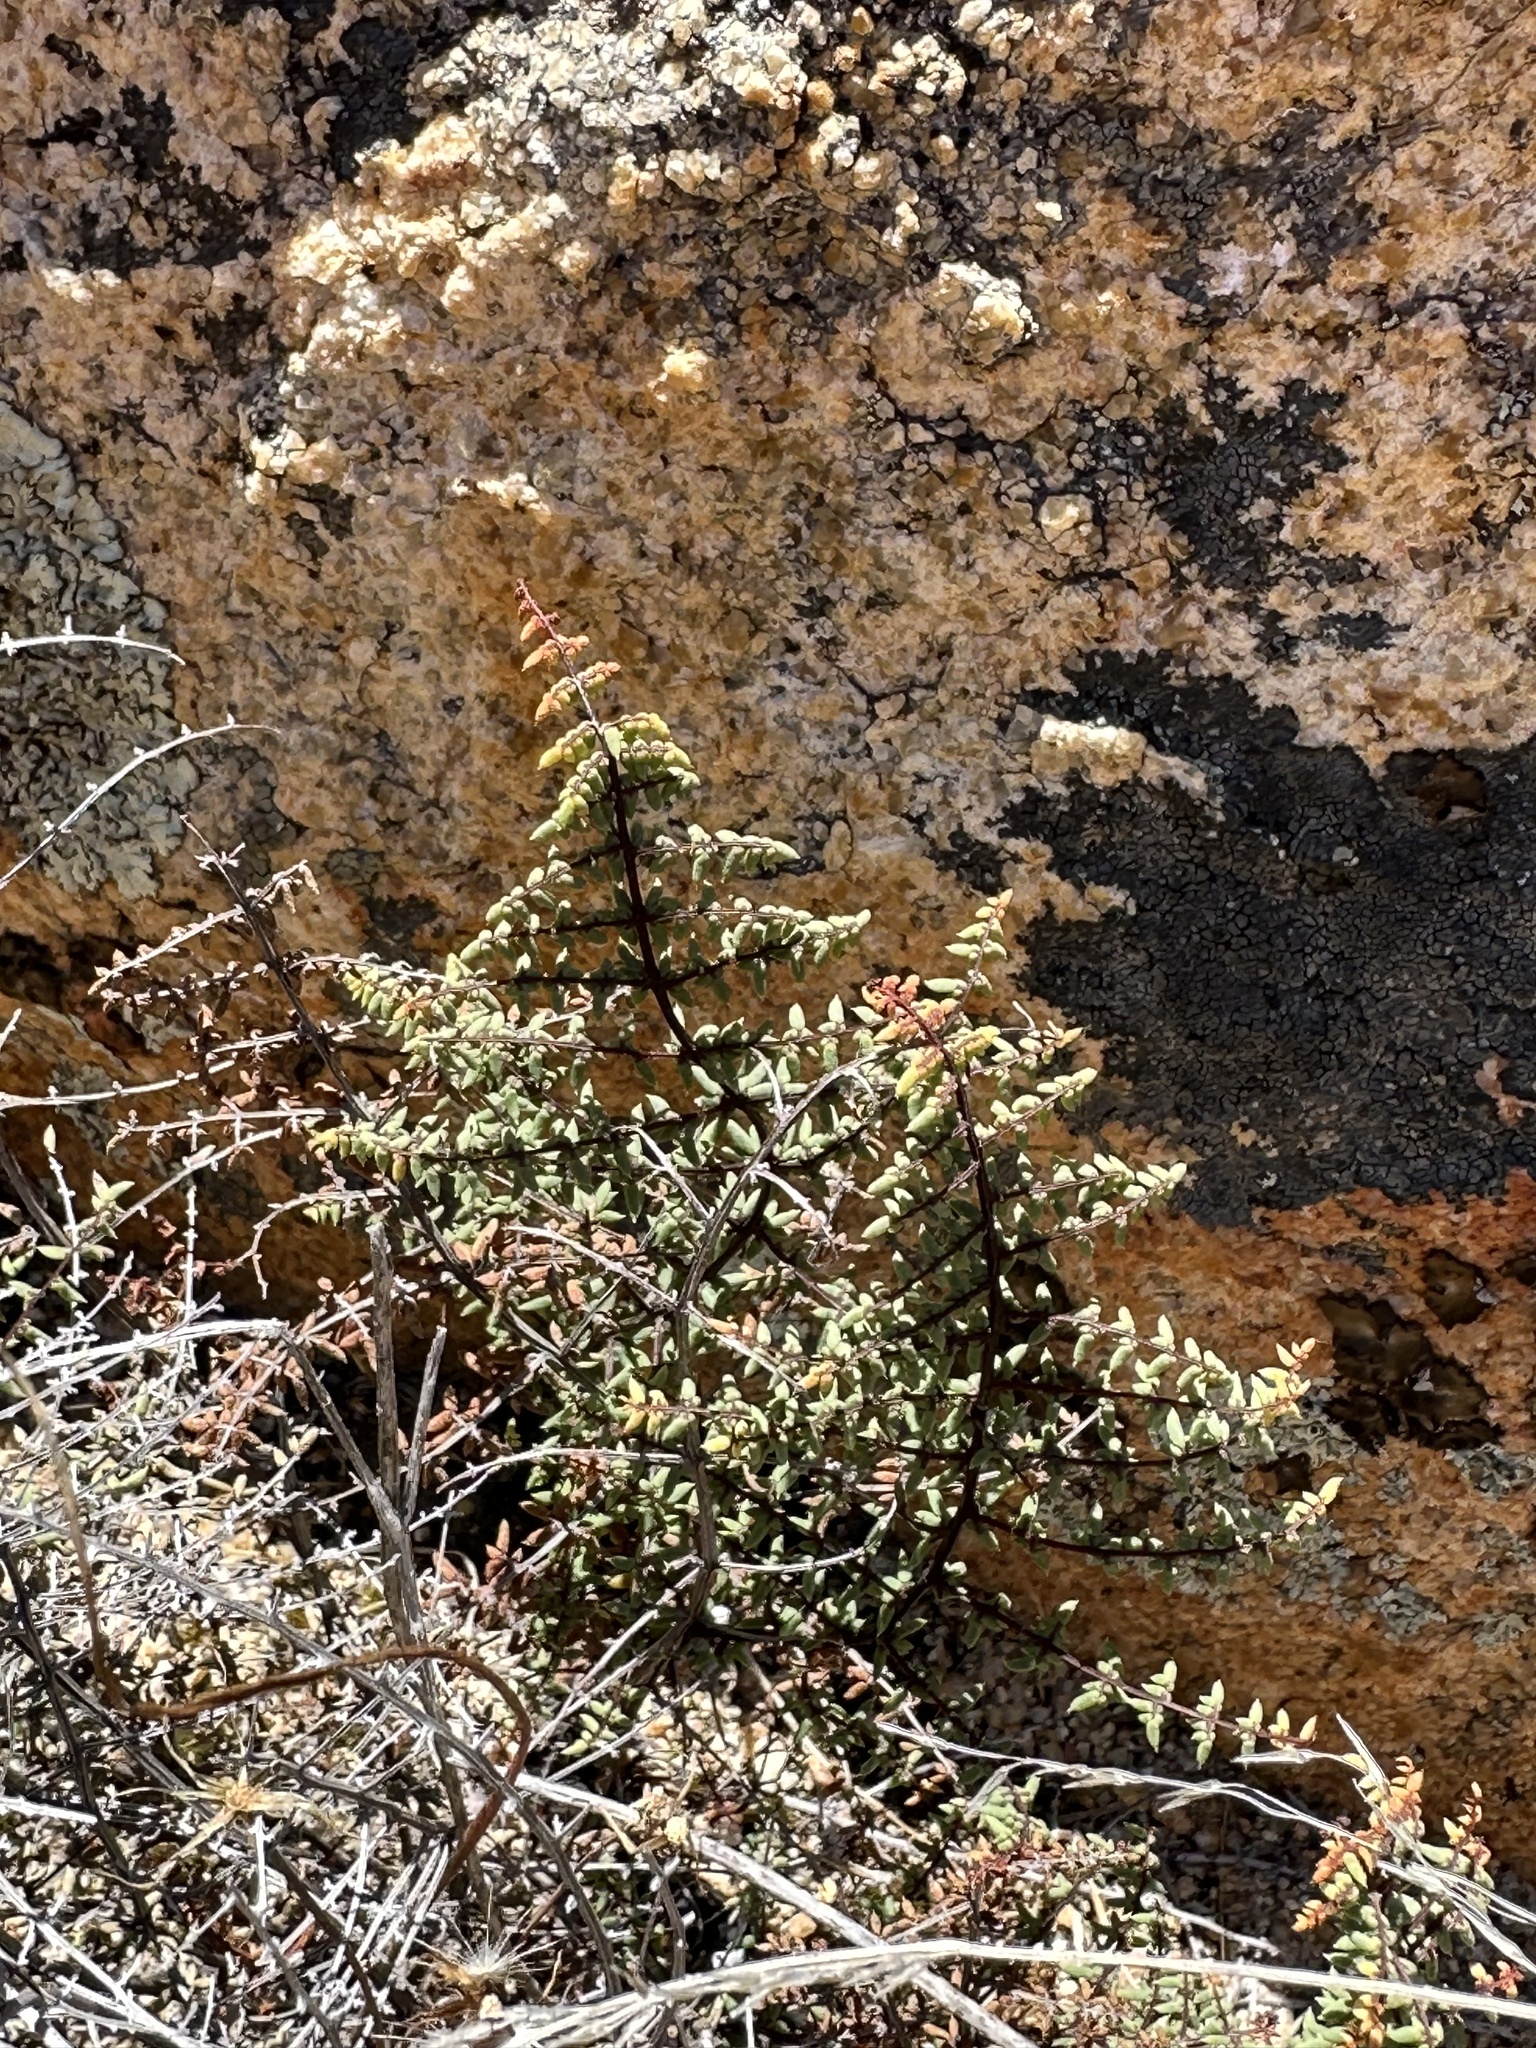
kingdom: Plantae
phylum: Tracheophyta
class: Polypodiopsida
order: Polypodiales
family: Pteridaceae
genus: Pellaea
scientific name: Pellaea mucronata
